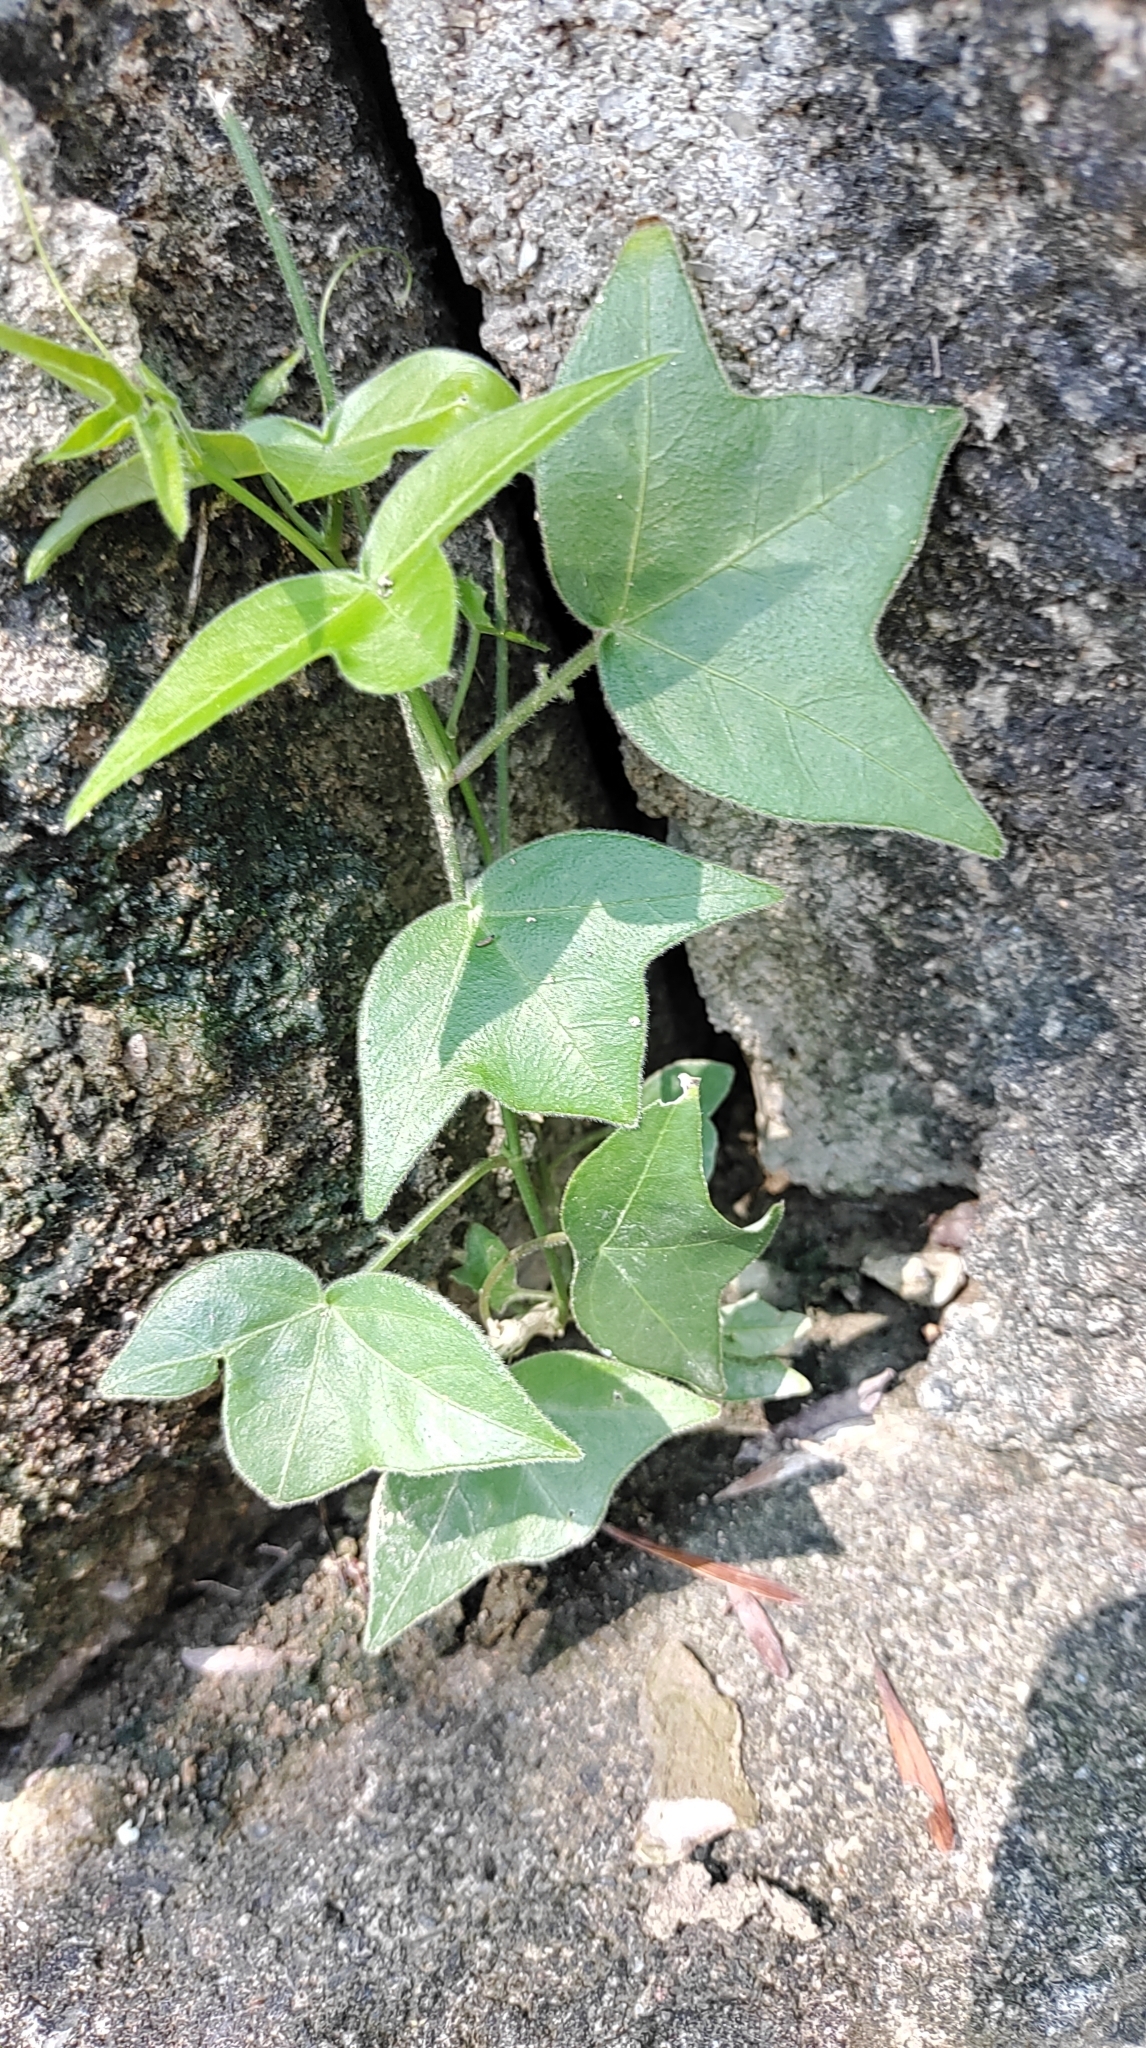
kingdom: Plantae
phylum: Tracheophyta
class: Magnoliopsida
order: Malpighiales
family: Passifloraceae
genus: Passiflora
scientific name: Passiflora suberosa
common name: Wild passionfruit
